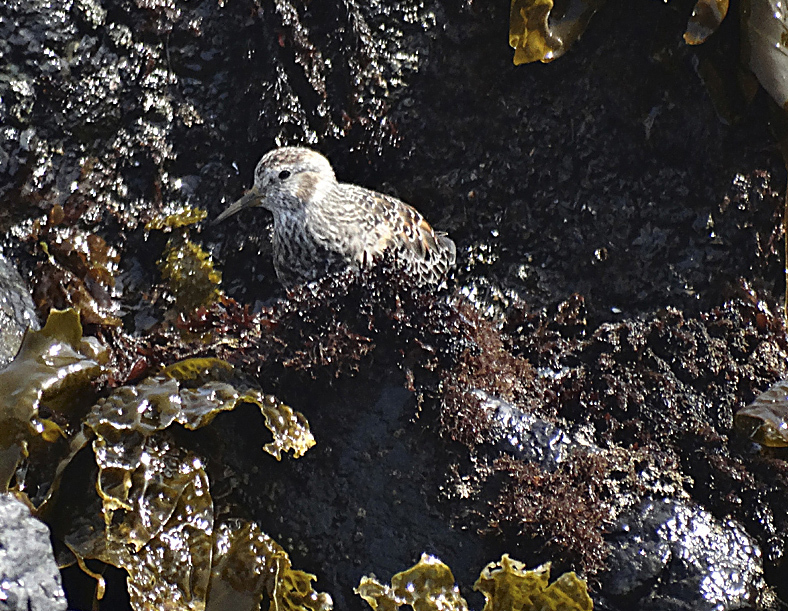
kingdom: Animalia
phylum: Chordata
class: Aves
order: Charadriiformes
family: Scolopacidae
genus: Calidris
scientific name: Calidris ptilocnemis
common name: Rock sandpiper
